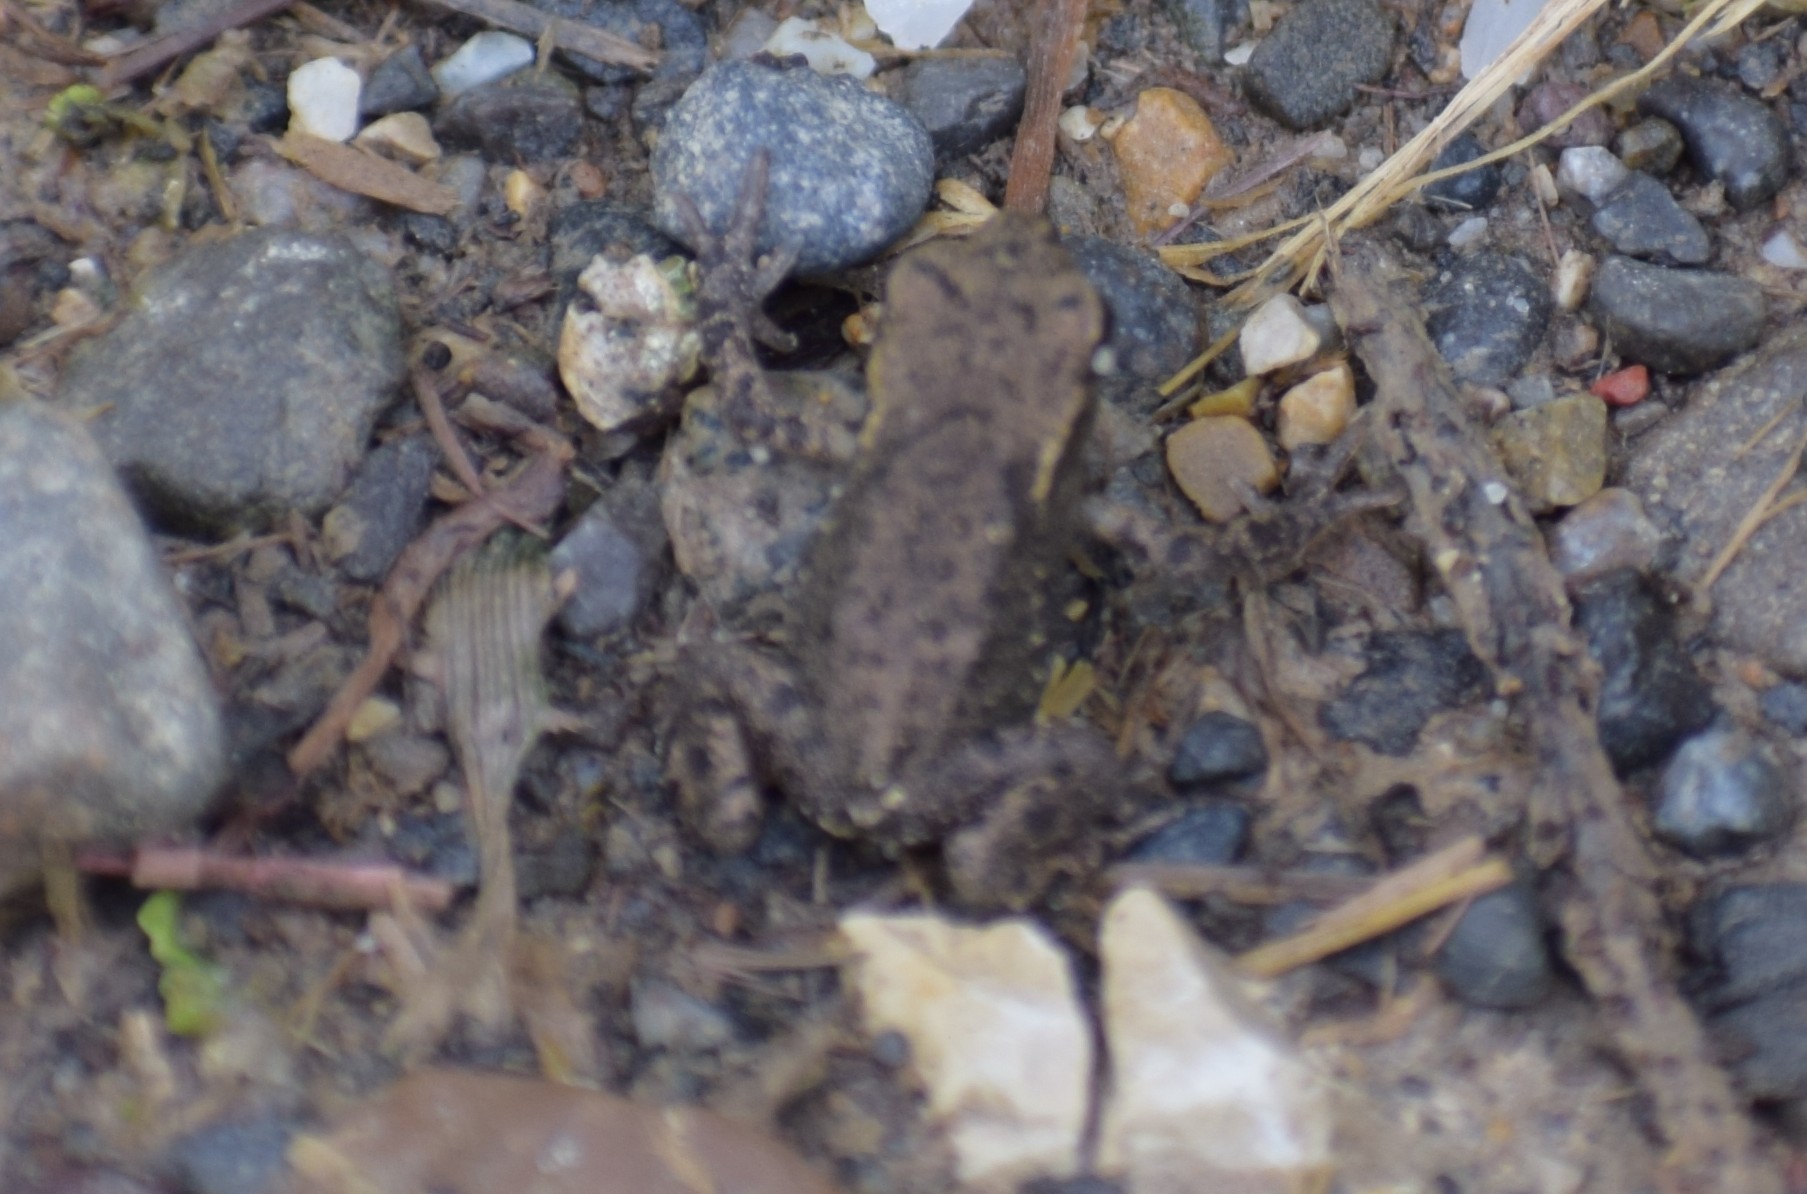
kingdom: Animalia
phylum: Chordata
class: Amphibia
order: Anura
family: Bufonidae
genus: Bufo
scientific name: Bufo bufo
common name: Common toad
